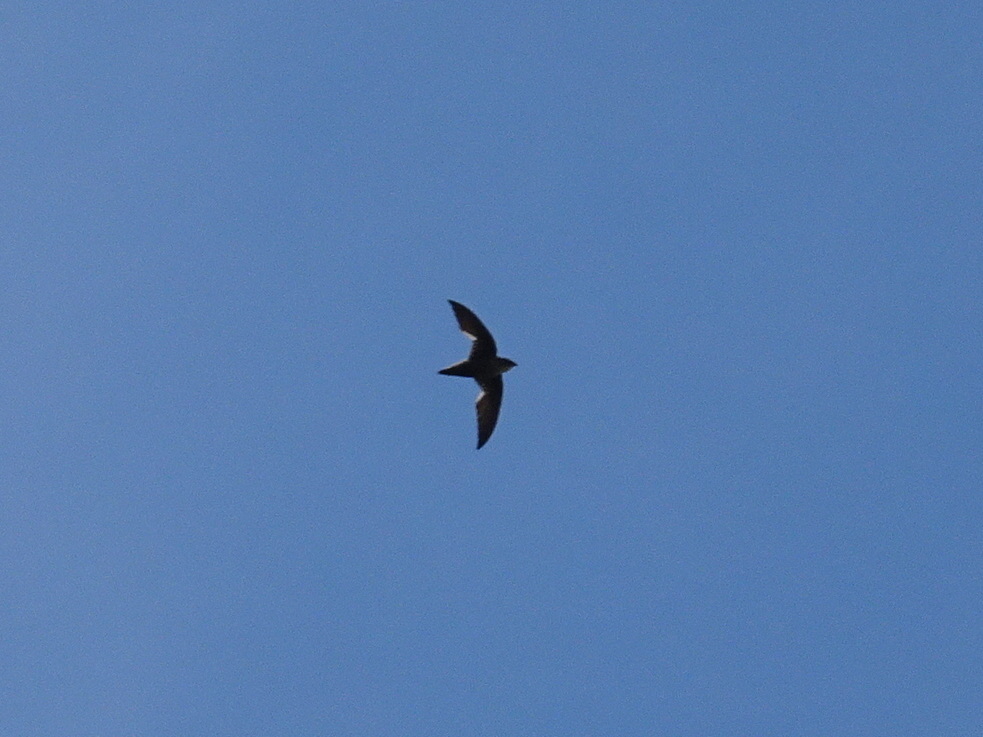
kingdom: Animalia
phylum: Chordata
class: Aves
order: Apodiformes
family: Apodidae
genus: Chaetura
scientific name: Chaetura pelagica
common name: Chimney swift
